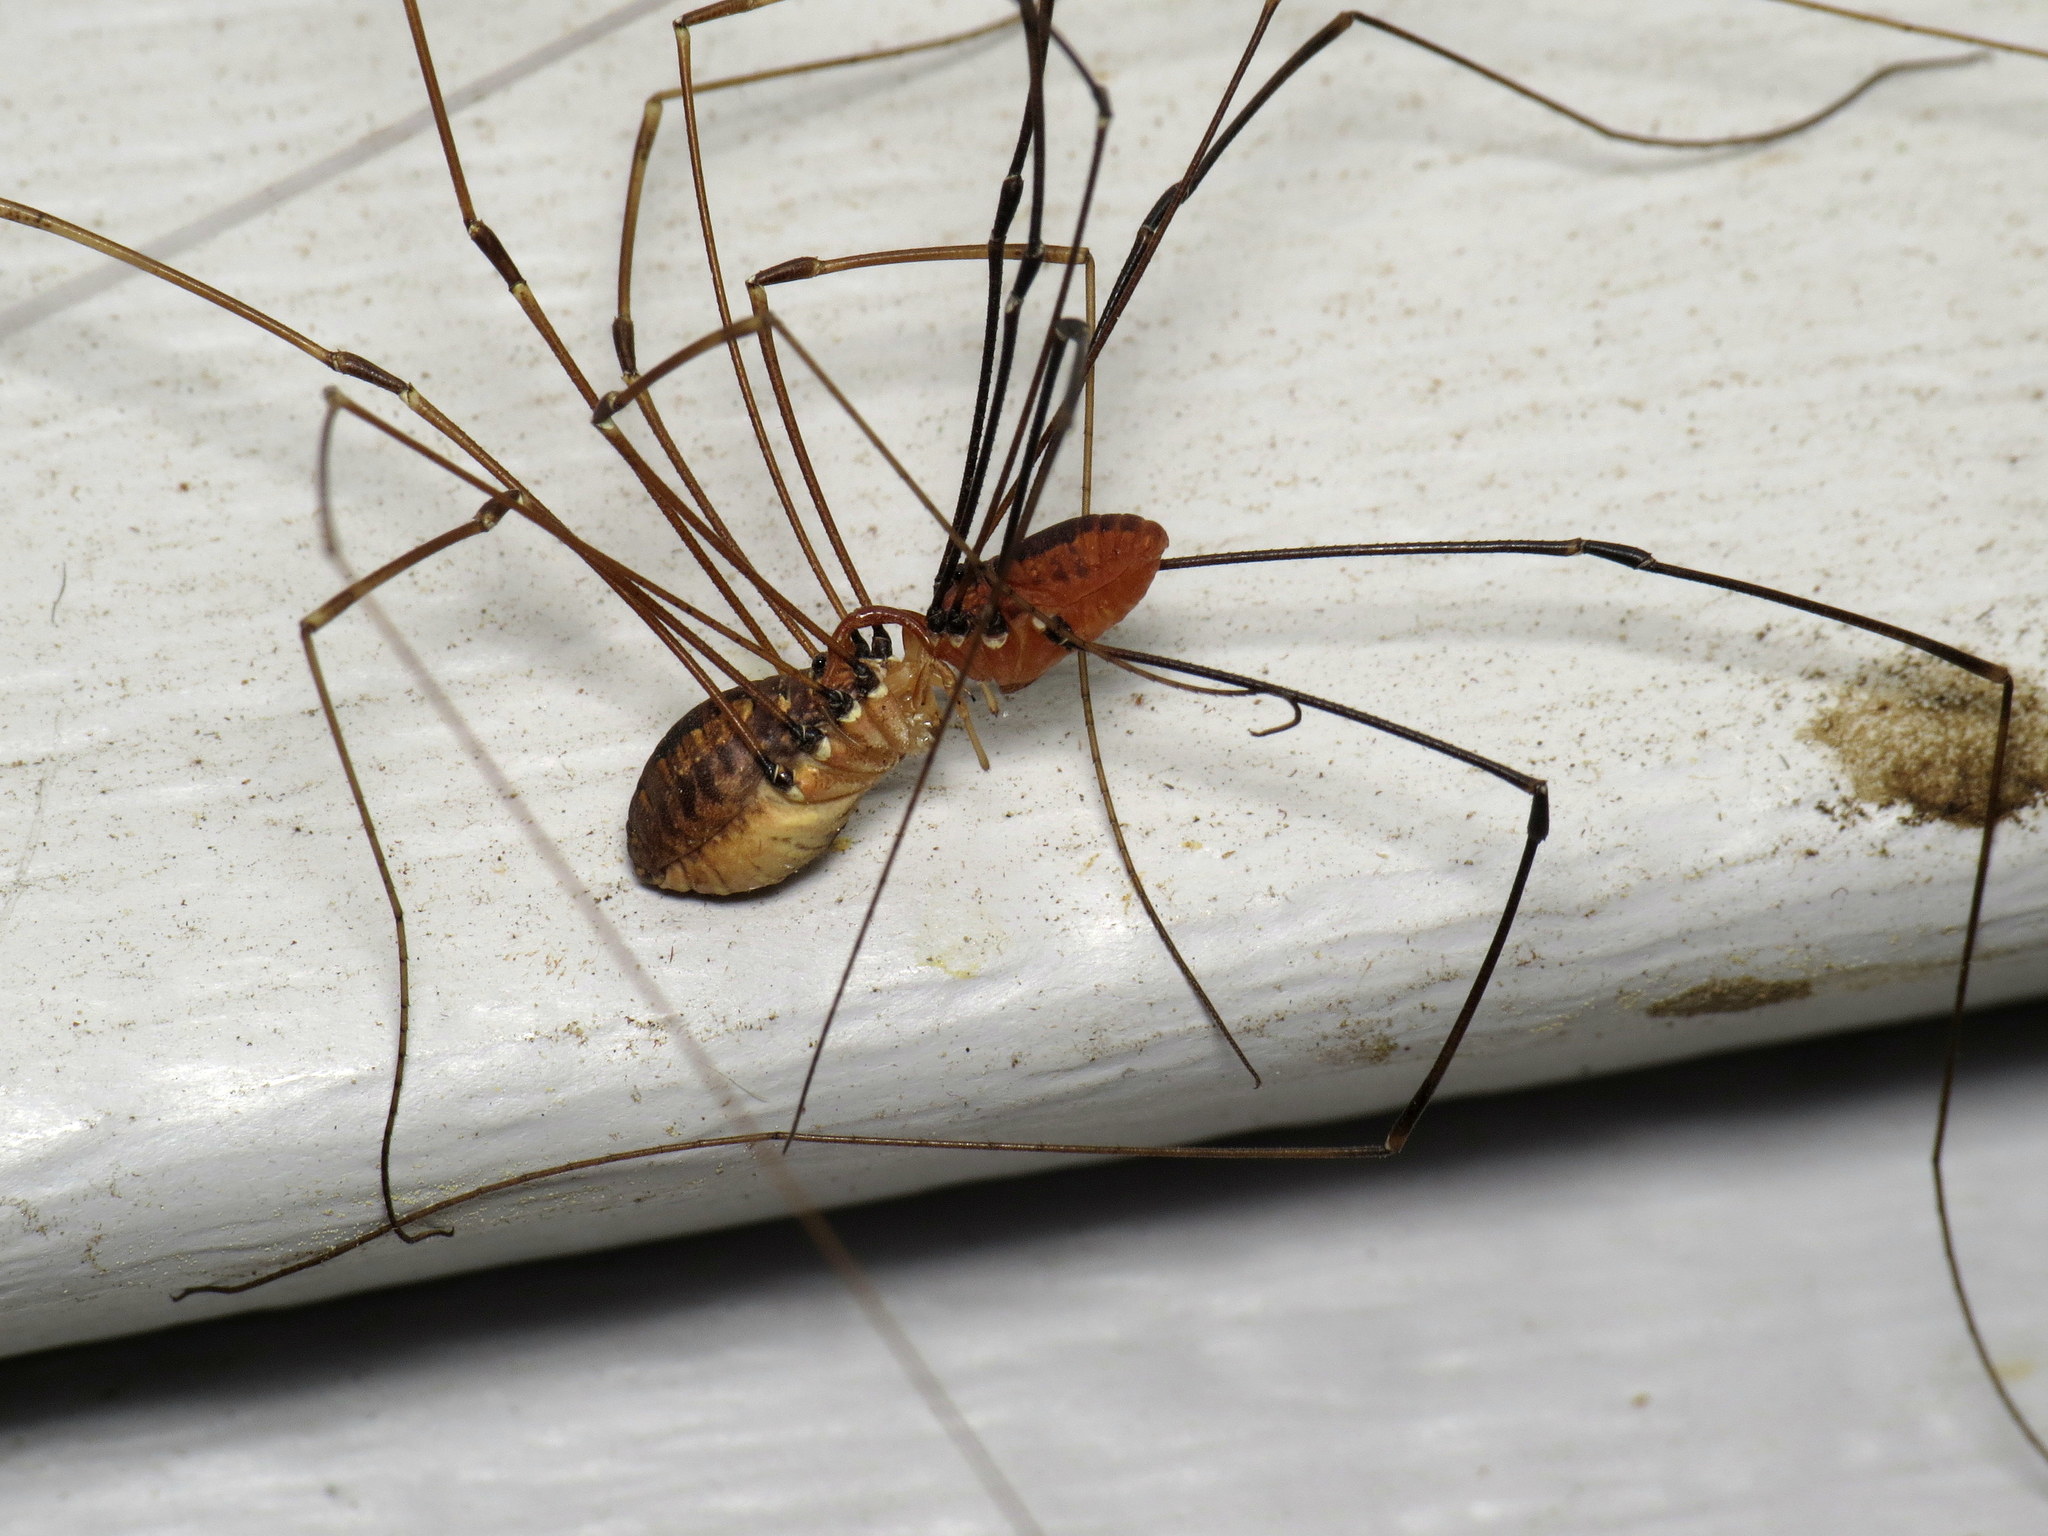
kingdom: Animalia
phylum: Arthropoda
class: Arachnida
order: Opiliones
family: Sclerosomatidae
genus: Leiobunum
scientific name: Leiobunum vittatum
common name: Eastern harvestman
